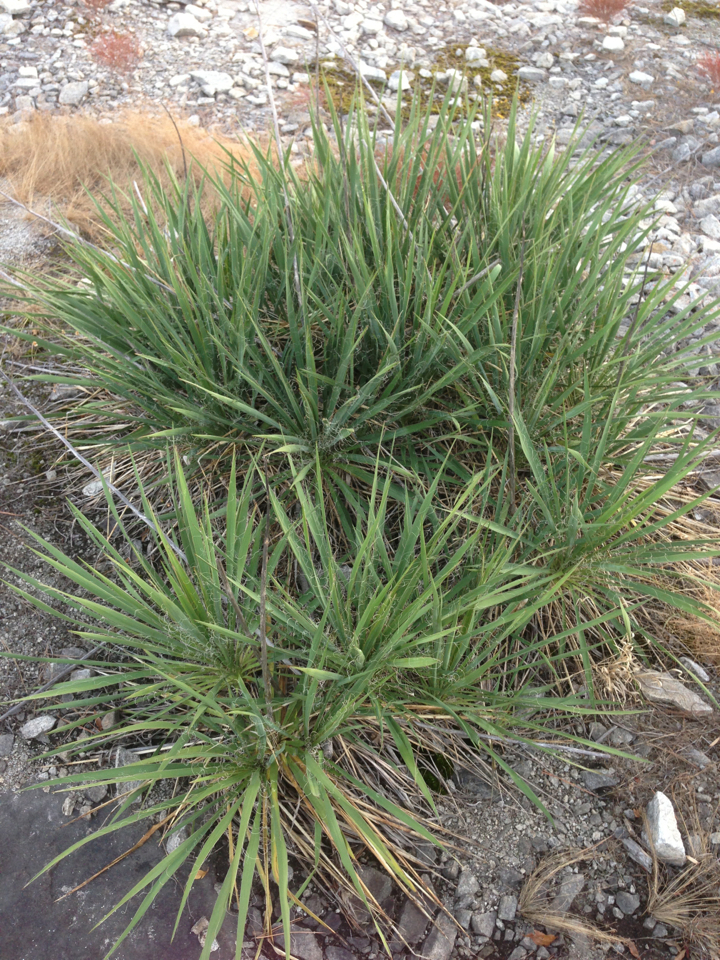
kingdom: Plantae
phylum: Tracheophyta
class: Liliopsida
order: Asparagales
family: Asparagaceae
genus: Yucca
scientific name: Yucca filamentosa
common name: Adam's-needle
